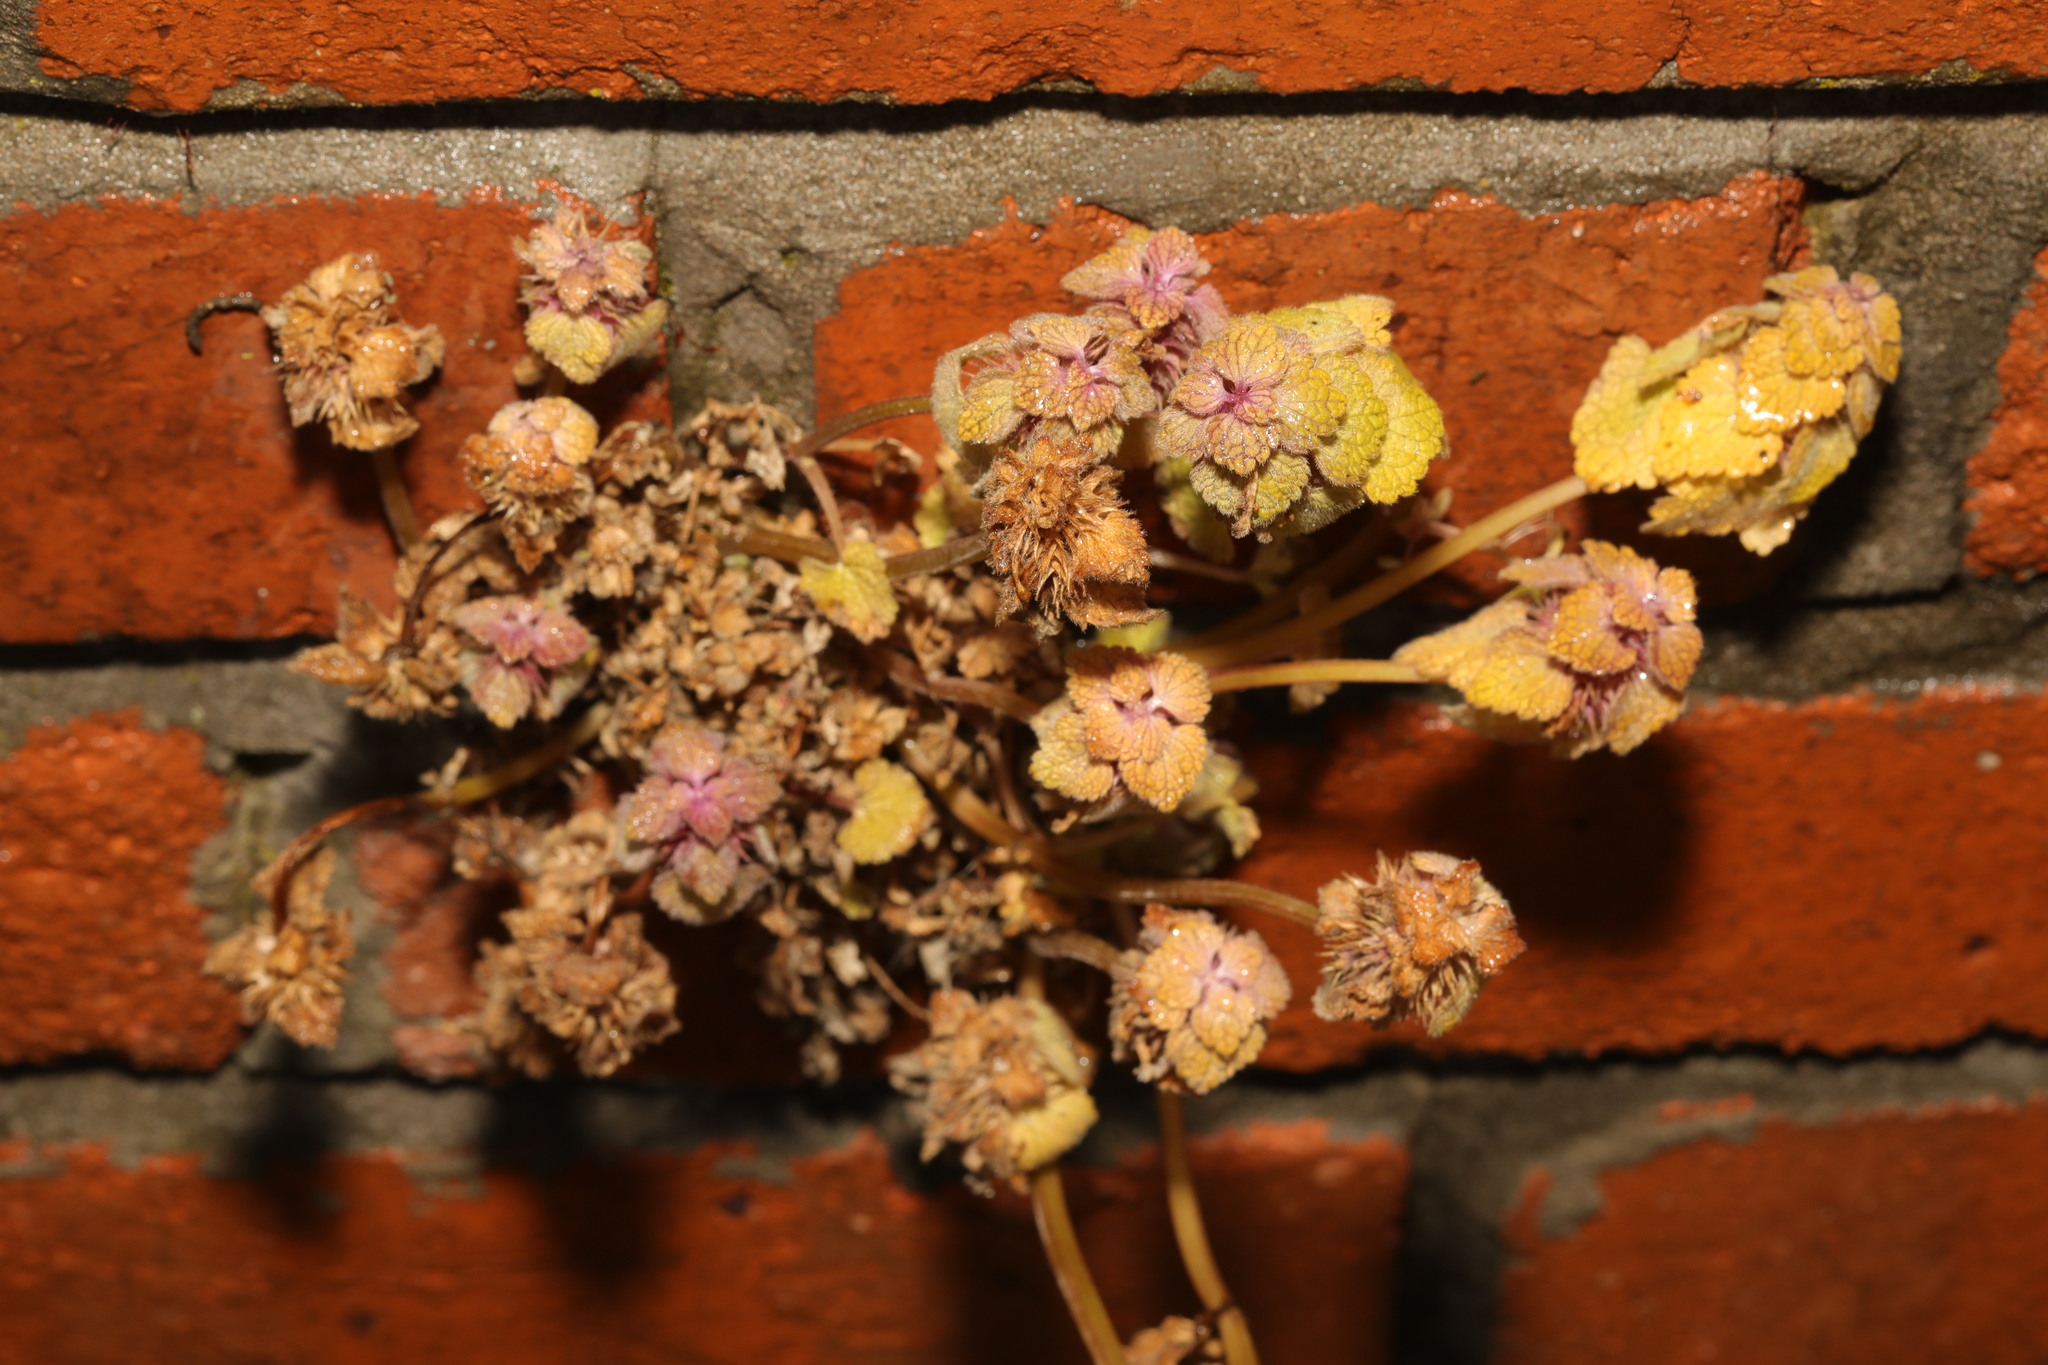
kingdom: Plantae
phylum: Tracheophyta
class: Magnoliopsida
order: Lamiales
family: Lamiaceae
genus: Lamium
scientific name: Lamium purpureum
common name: Red dead-nettle
